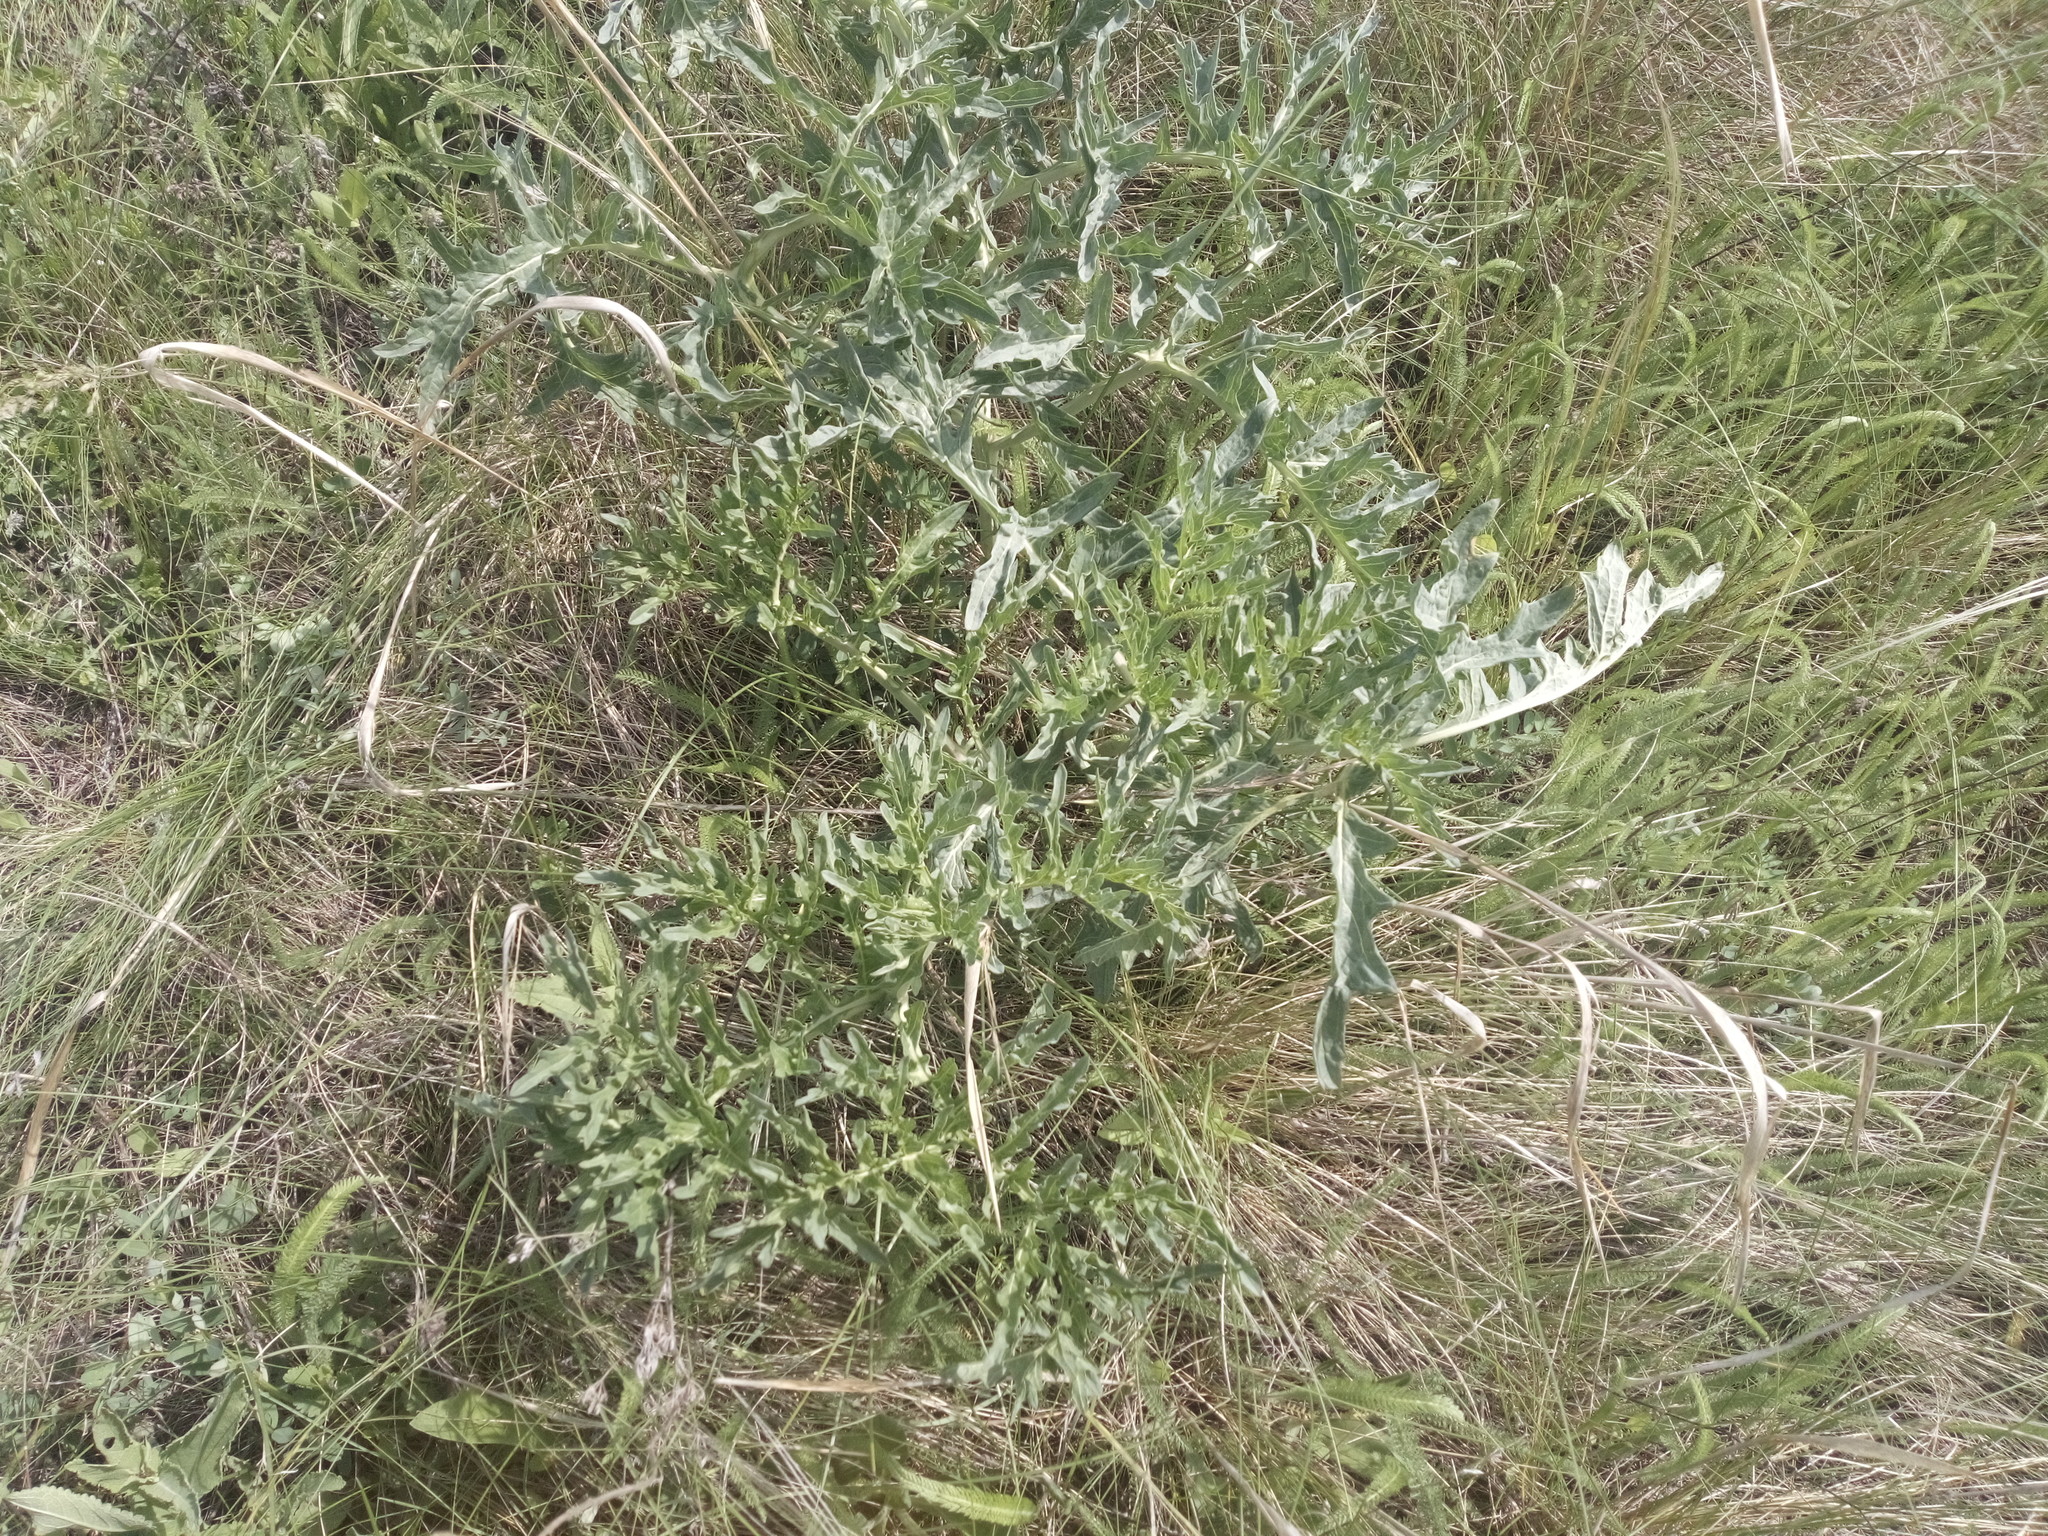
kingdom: Plantae
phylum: Tracheophyta
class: Magnoliopsida
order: Brassicales
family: Brassicaceae
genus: Crambe
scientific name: Crambe tataria
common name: Tartarian breadplant
